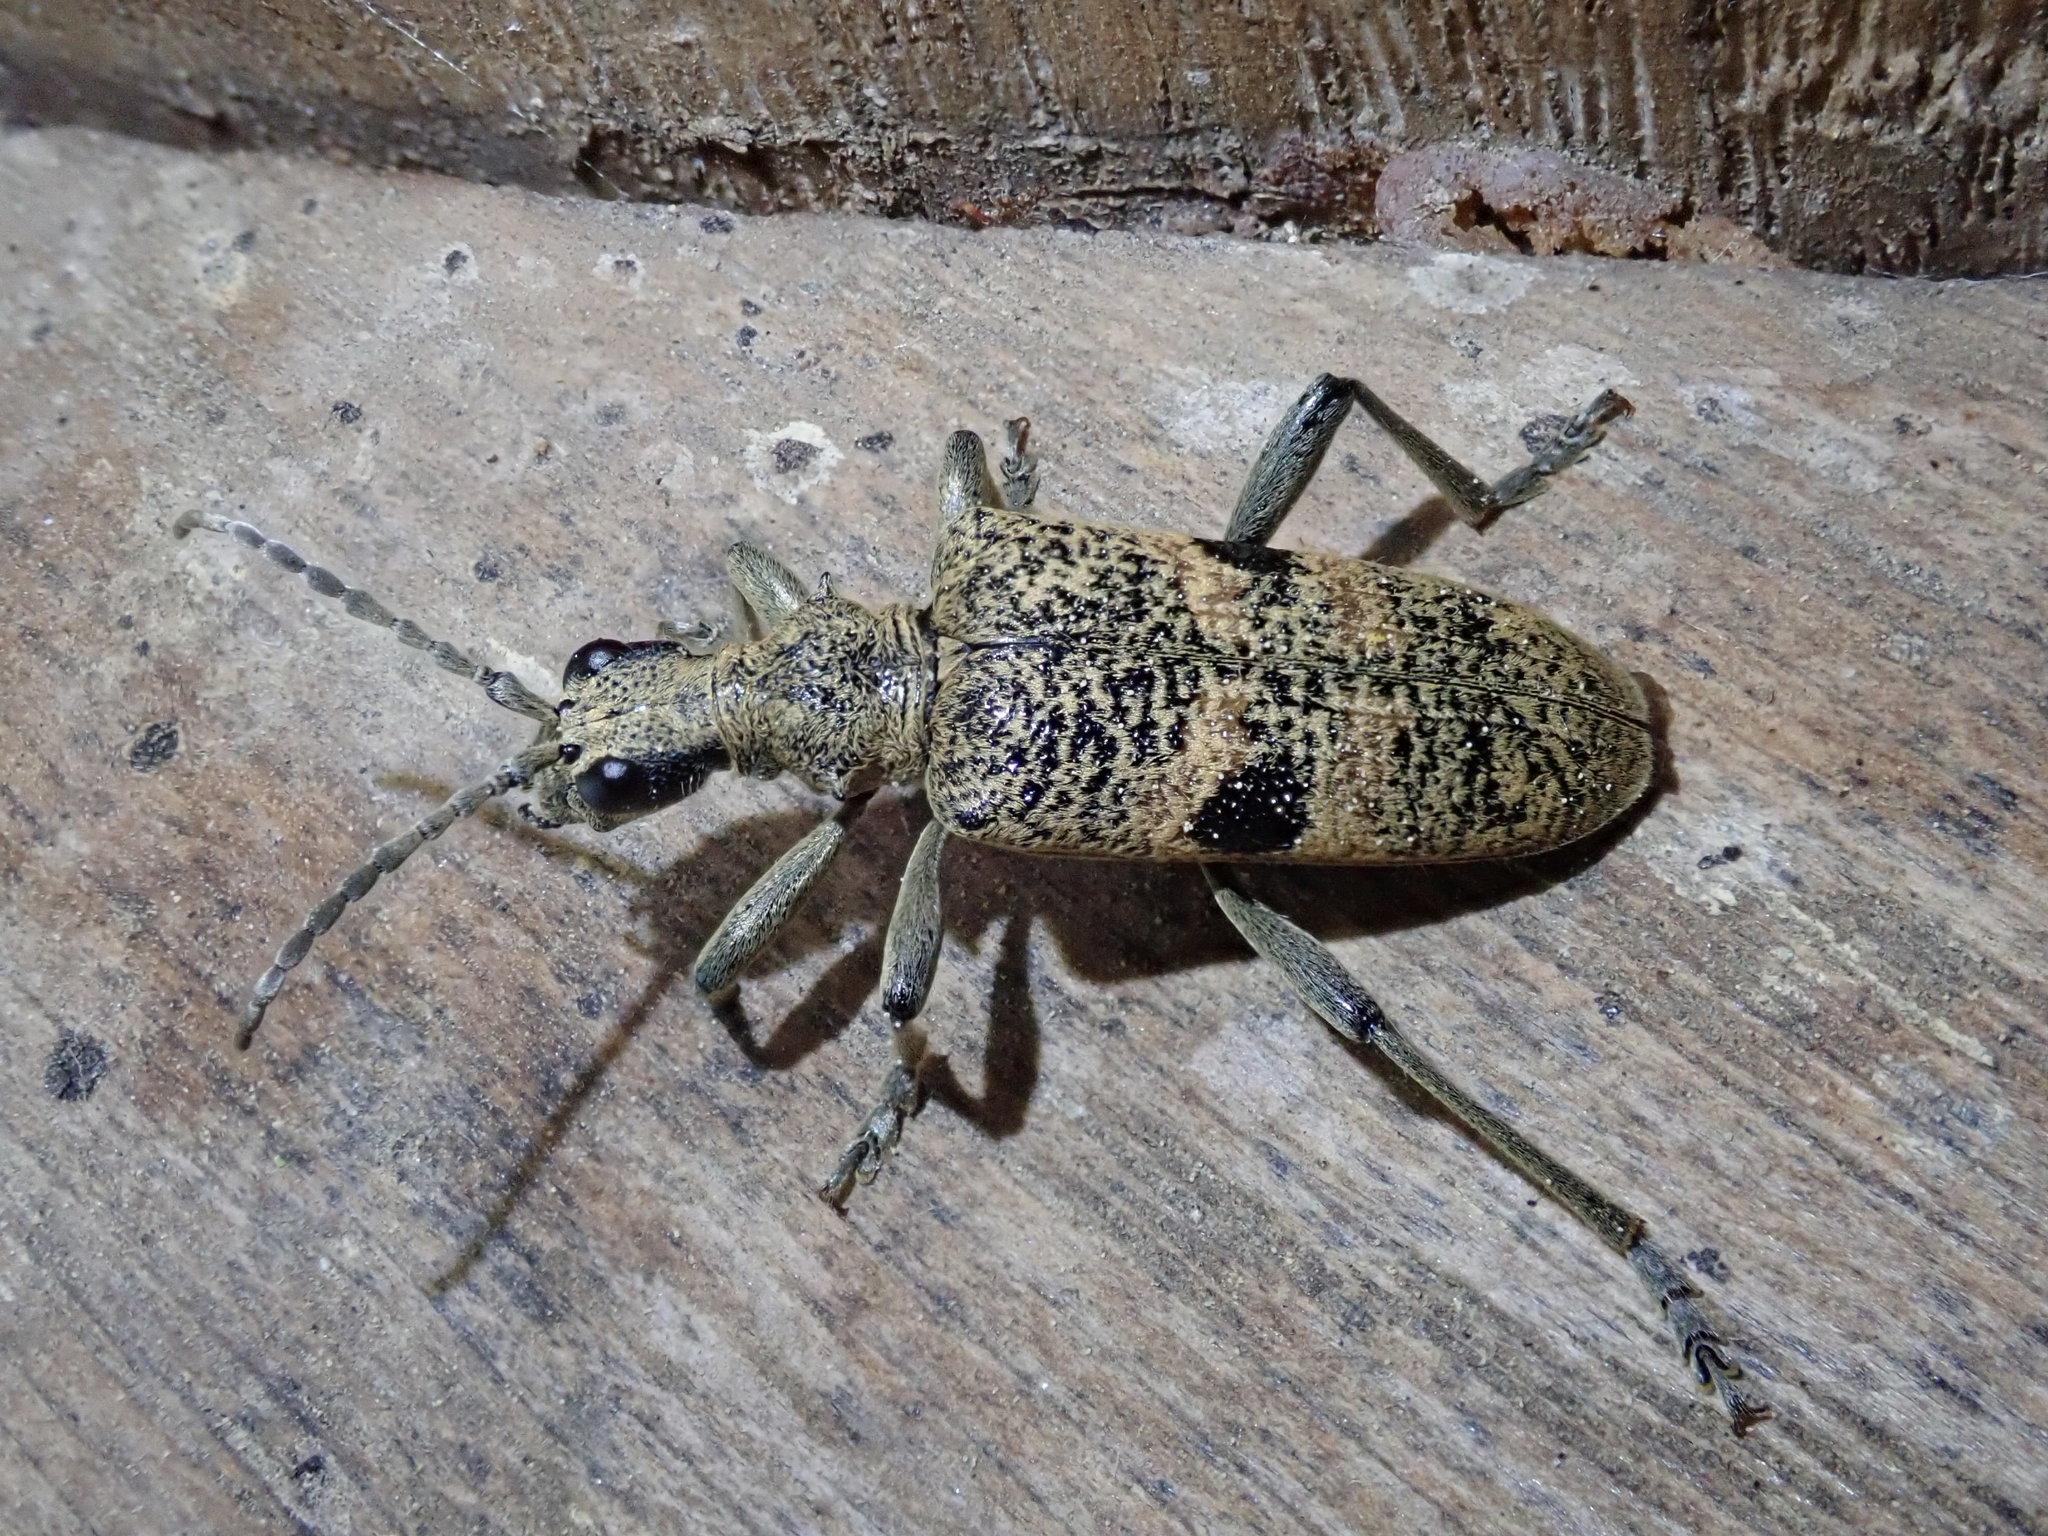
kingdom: Animalia
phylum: Arthropoda
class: Insecta
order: Coleoptera
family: Cerambycidae
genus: Rhagium
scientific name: Rhagium mordax
